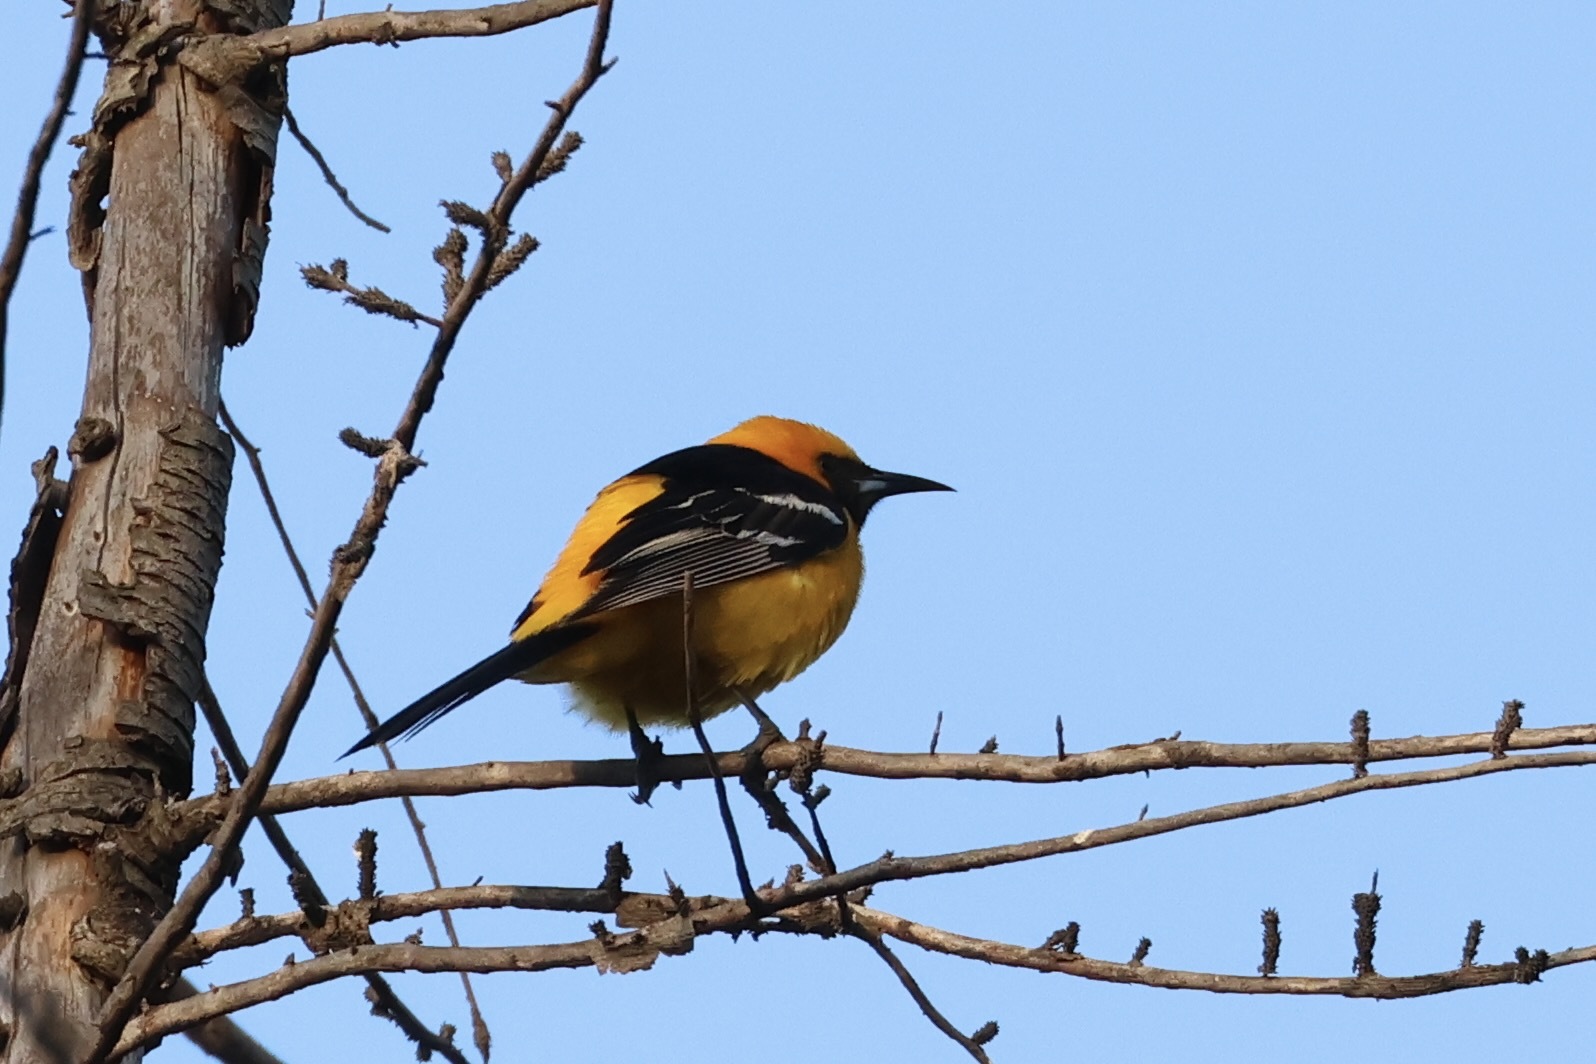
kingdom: Animalia
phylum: Chordata
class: Aves
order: Passeriformes
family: Icteridae
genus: Icterus
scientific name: Icterus cucullatus
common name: Hooded oriole
